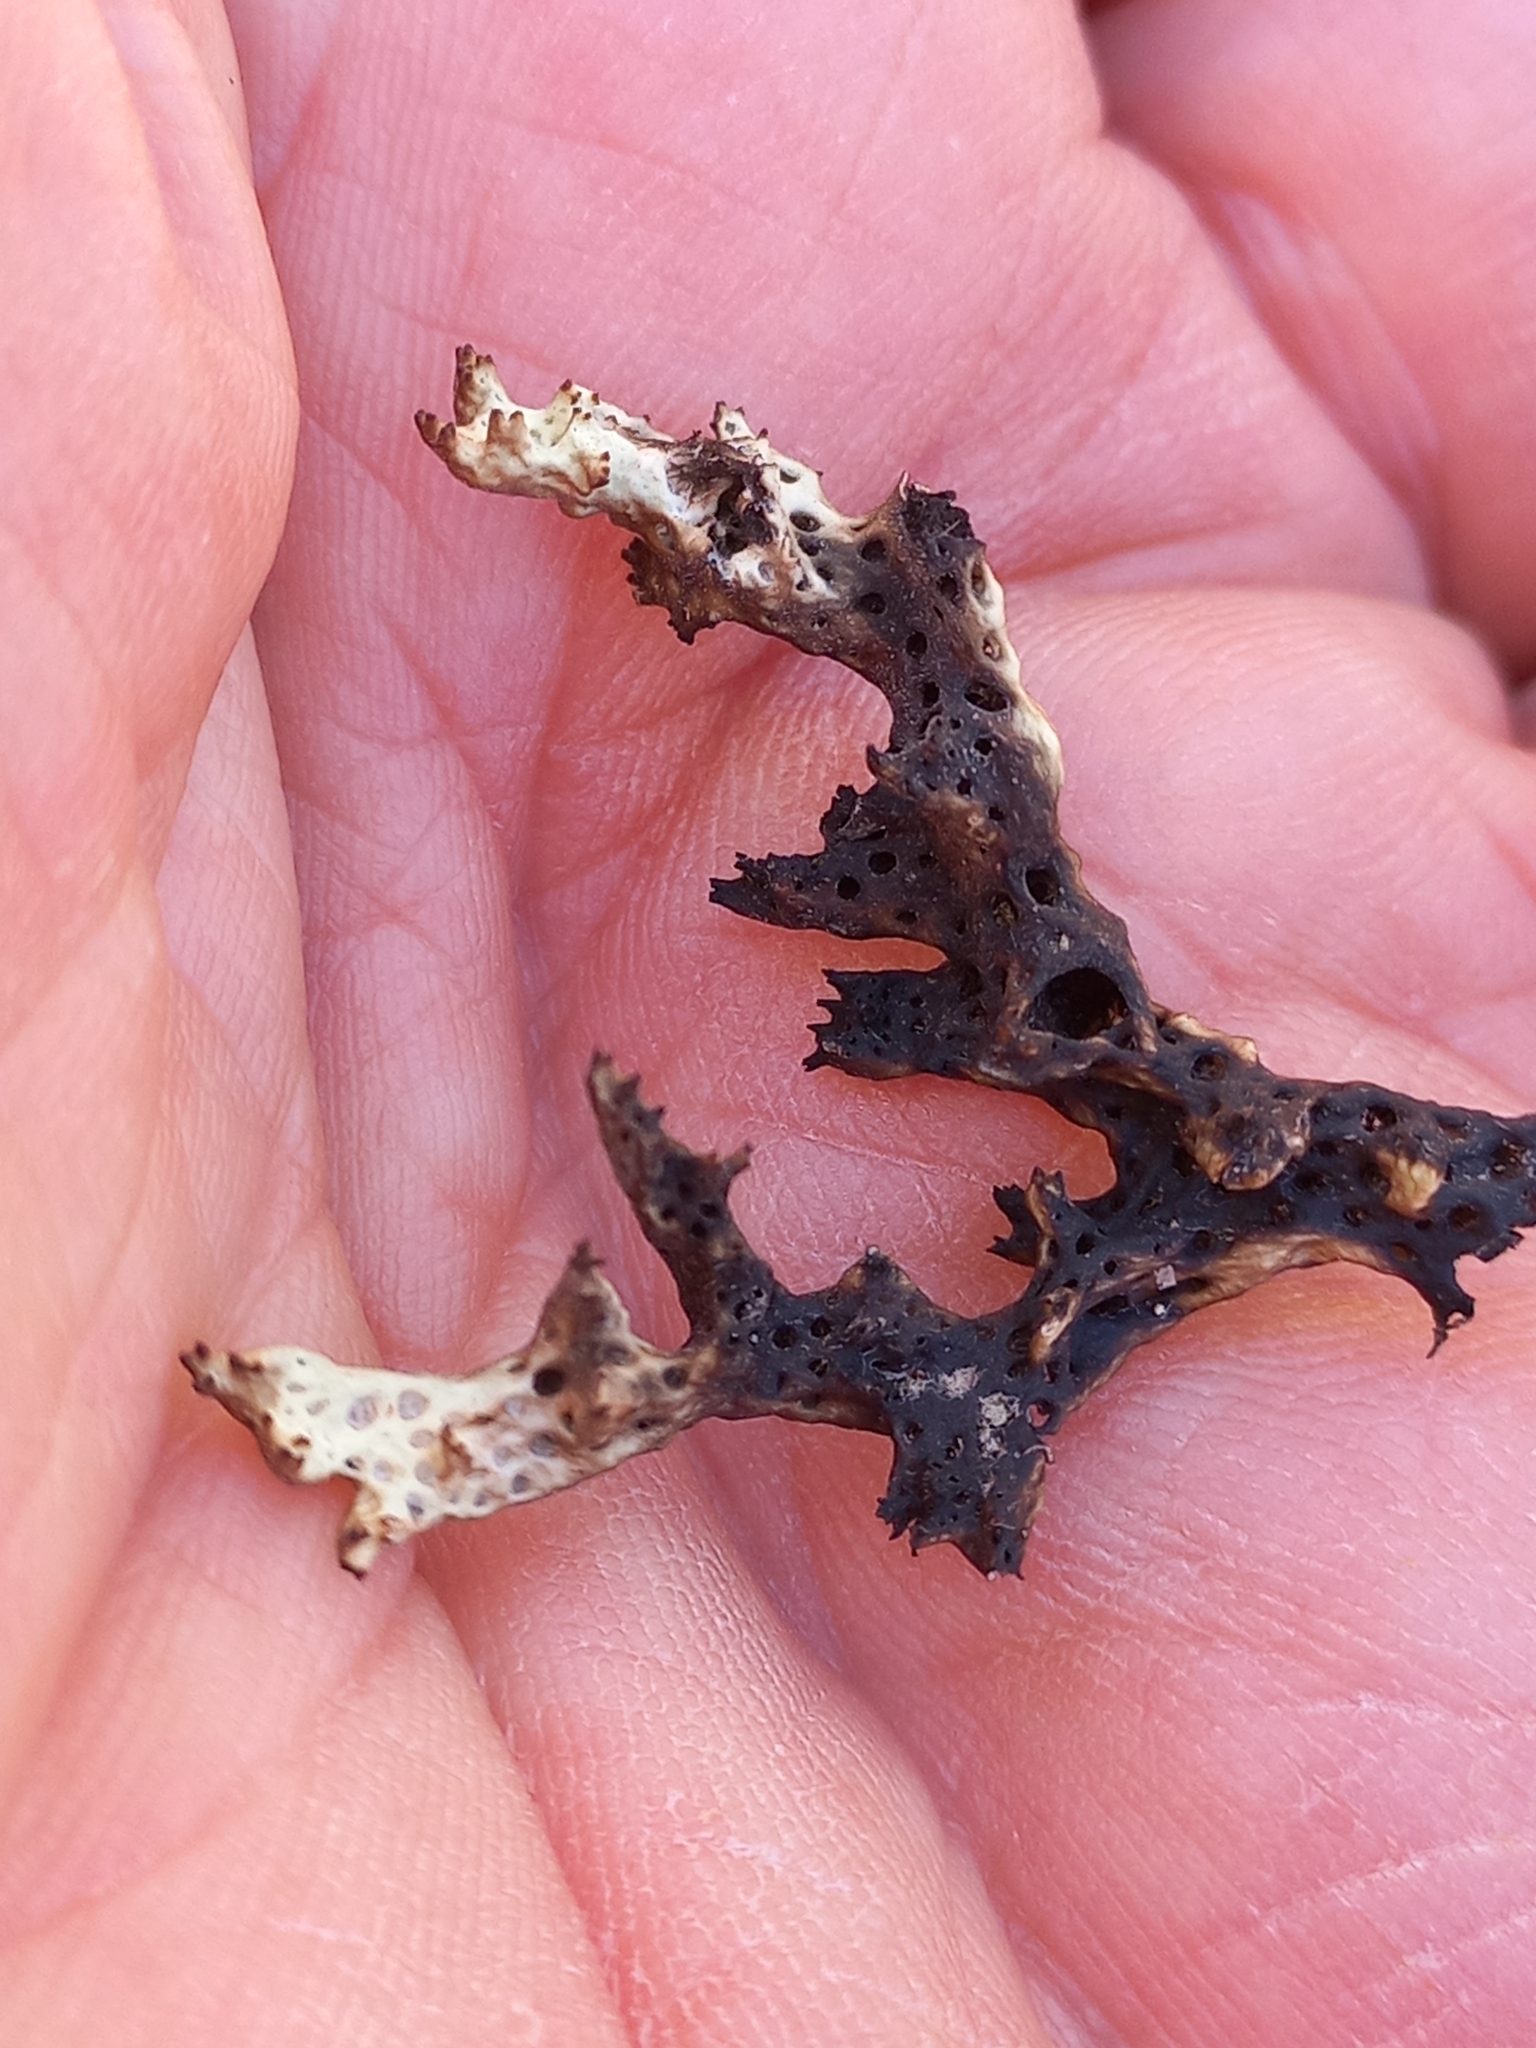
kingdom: Fungi
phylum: Ascomycota
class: Lecanoromycetes
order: Lecanorales
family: Cladoniaceae
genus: Rexiella
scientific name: Rexiella sullivanii
